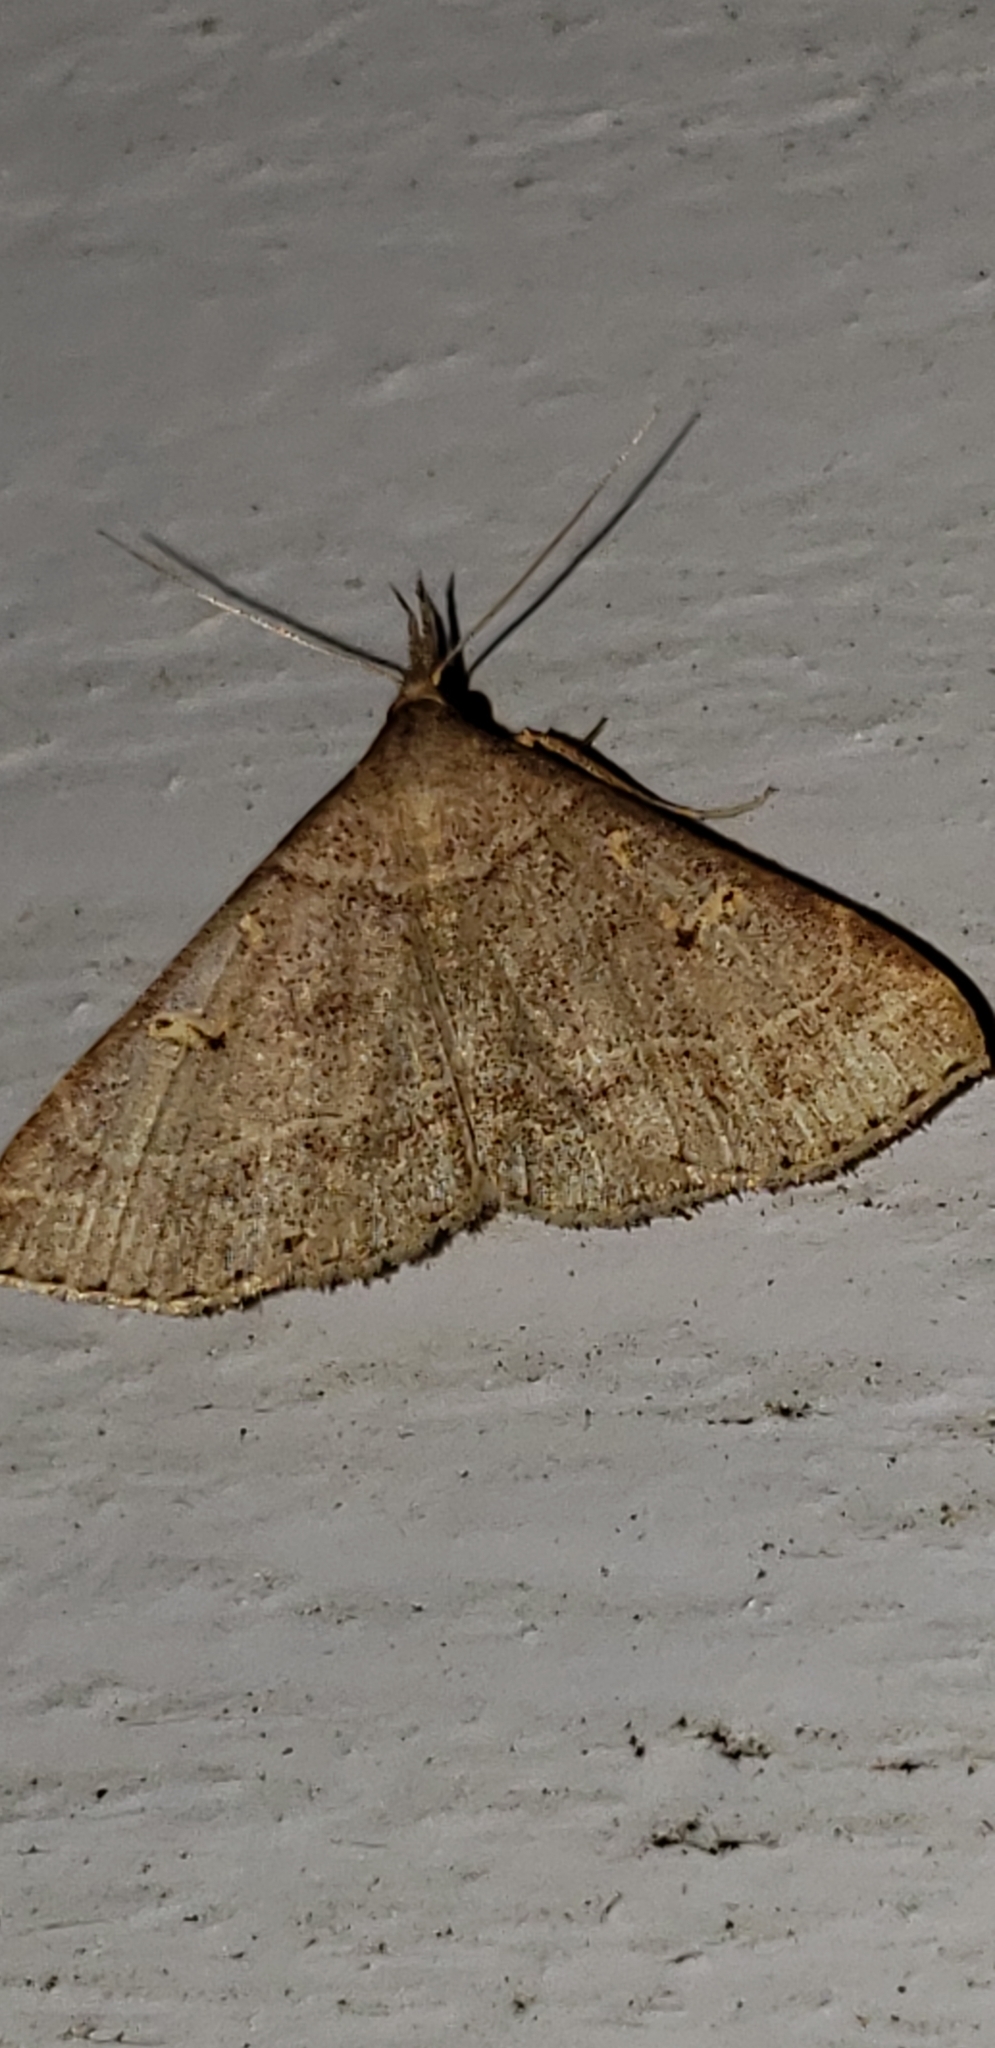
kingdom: Animalia
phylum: Arthropoda
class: Insecta
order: Lepidoptera
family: Erebidae
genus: Renia
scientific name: Renia flavipunctalis
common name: Yellow-spotted renia moth
